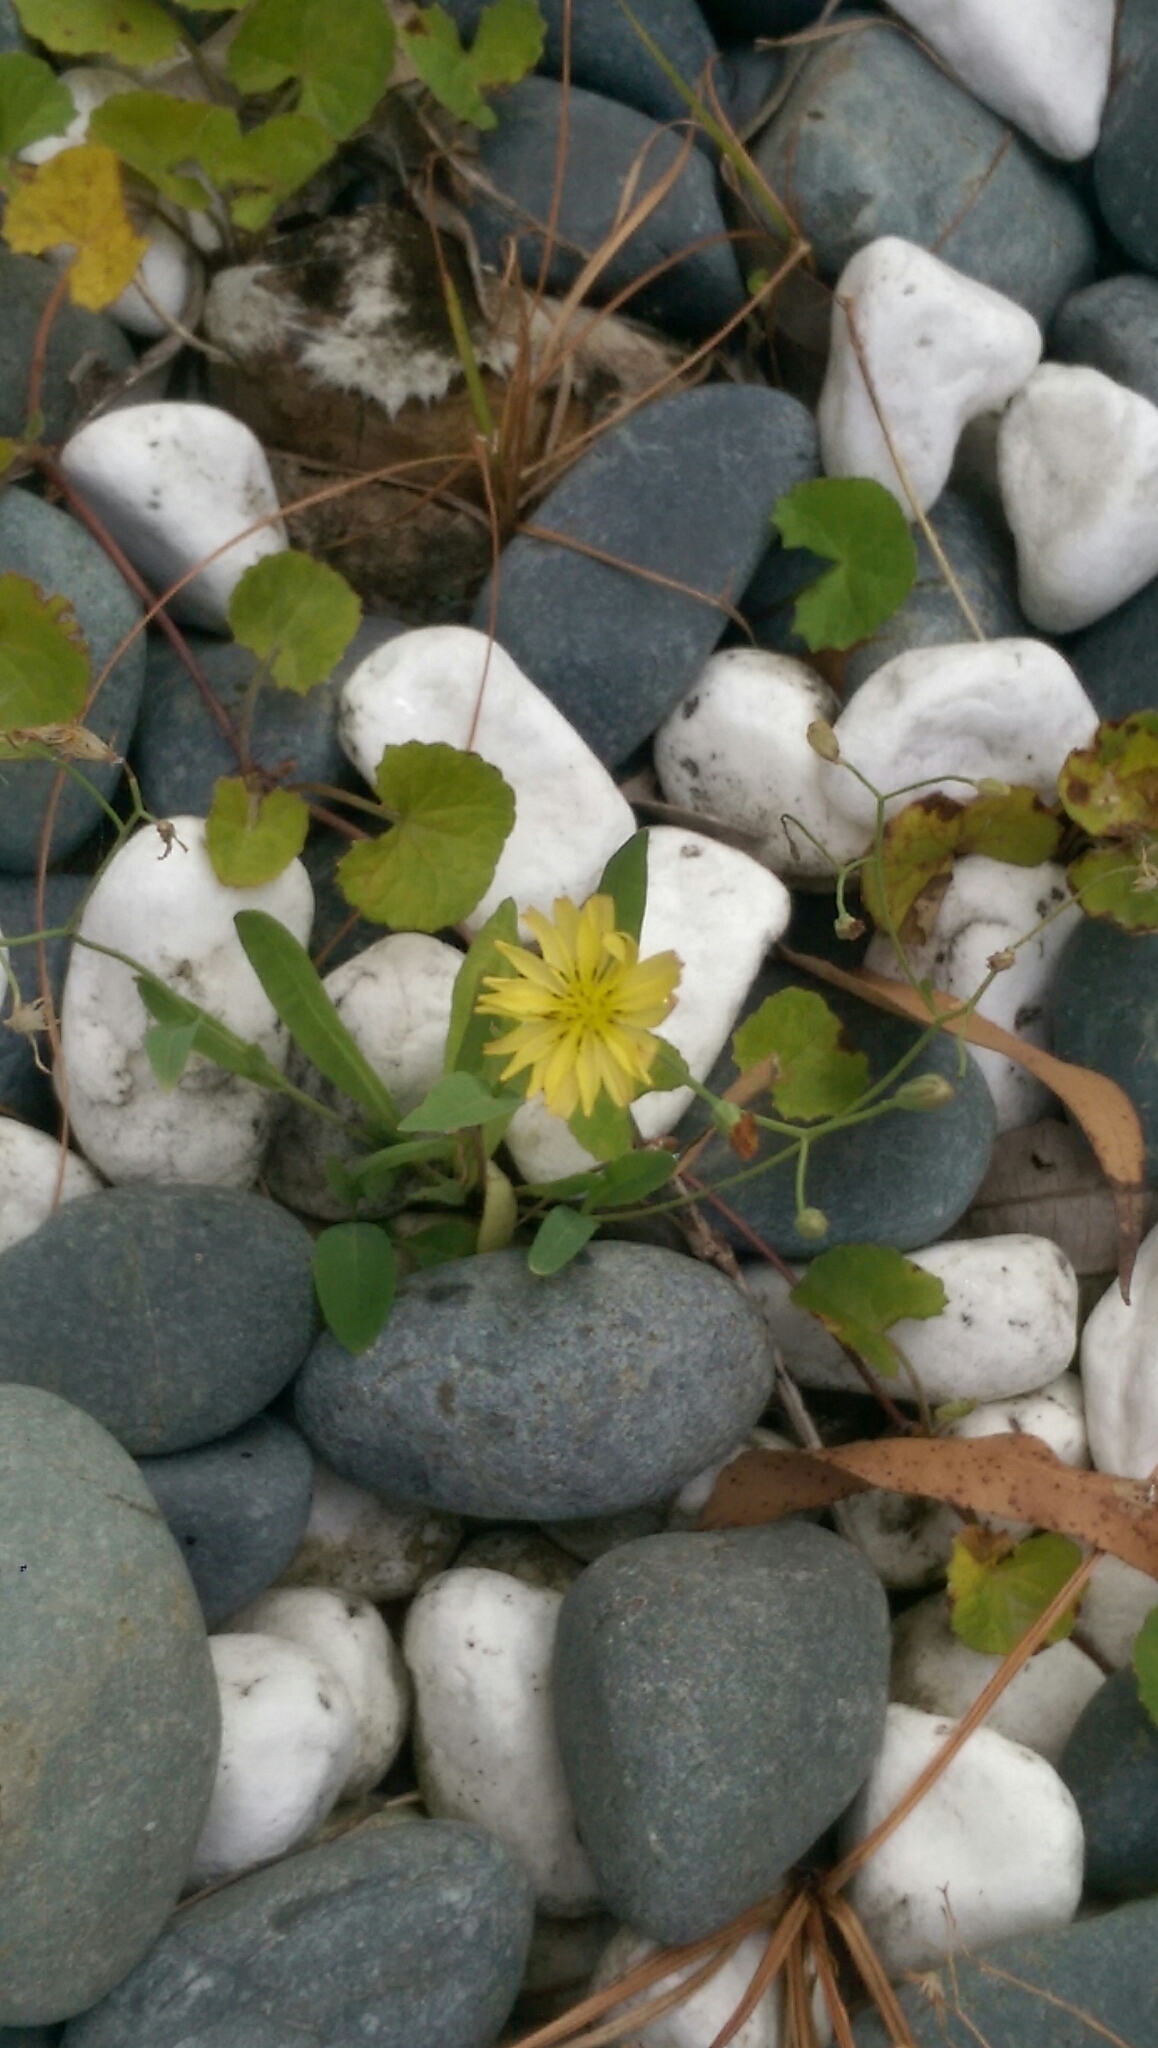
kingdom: Plantae
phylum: Tracheophyta
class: Magnoliopsida
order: Asterales
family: Asteraceae
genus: Ixeris
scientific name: Ixeris chinensis
